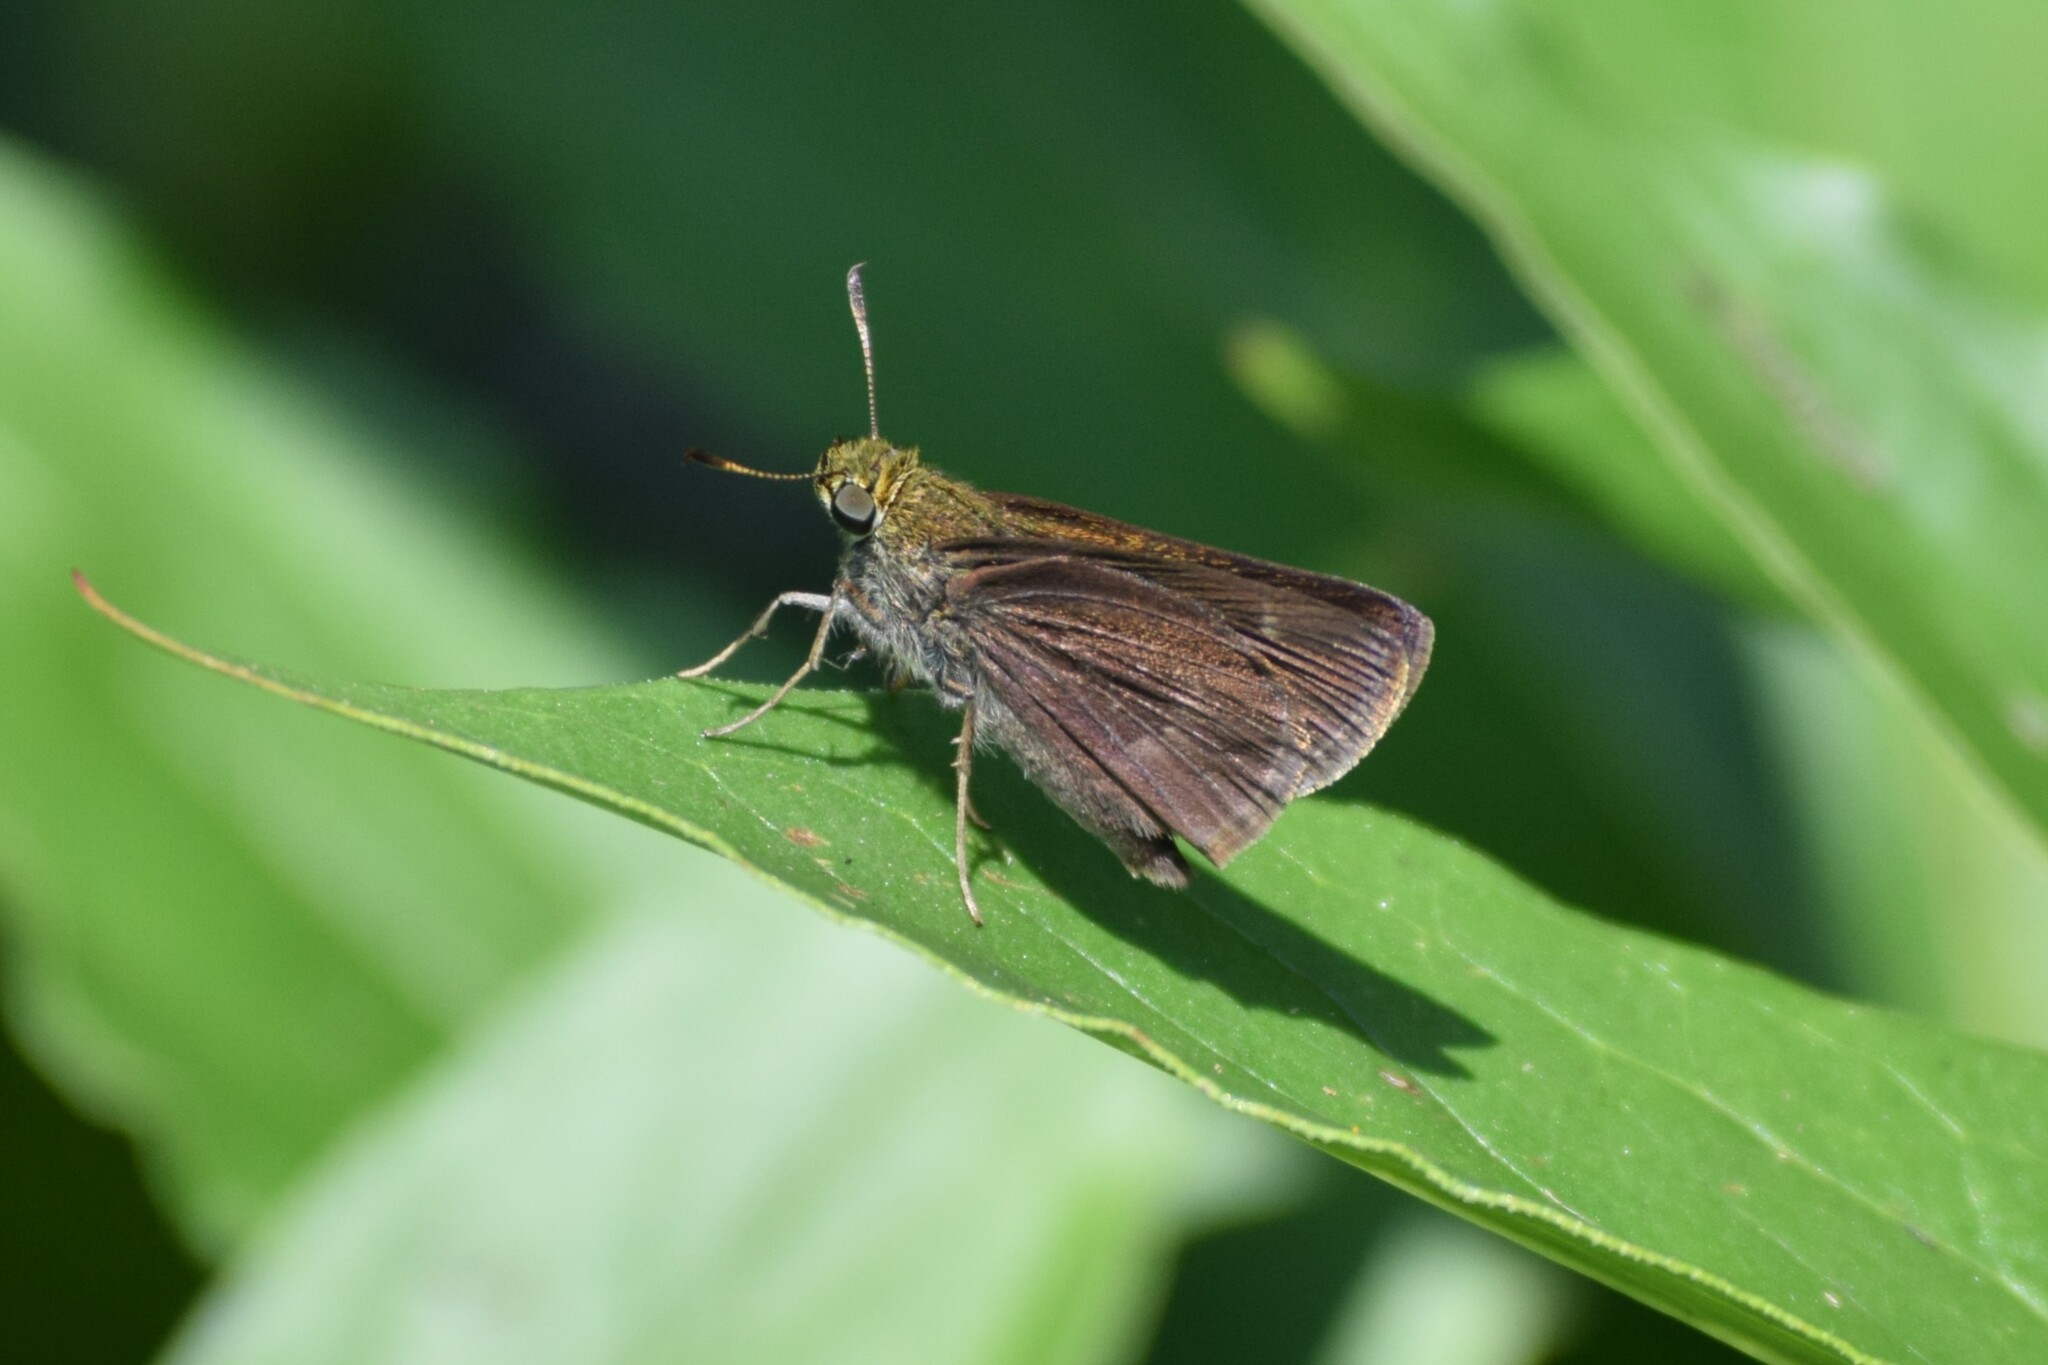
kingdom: Animalia
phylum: Arthropoda
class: Insecta
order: Lepidoptera
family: Hesperiidae
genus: Euphyes
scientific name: Euphyes vestris
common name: Dun skipper
